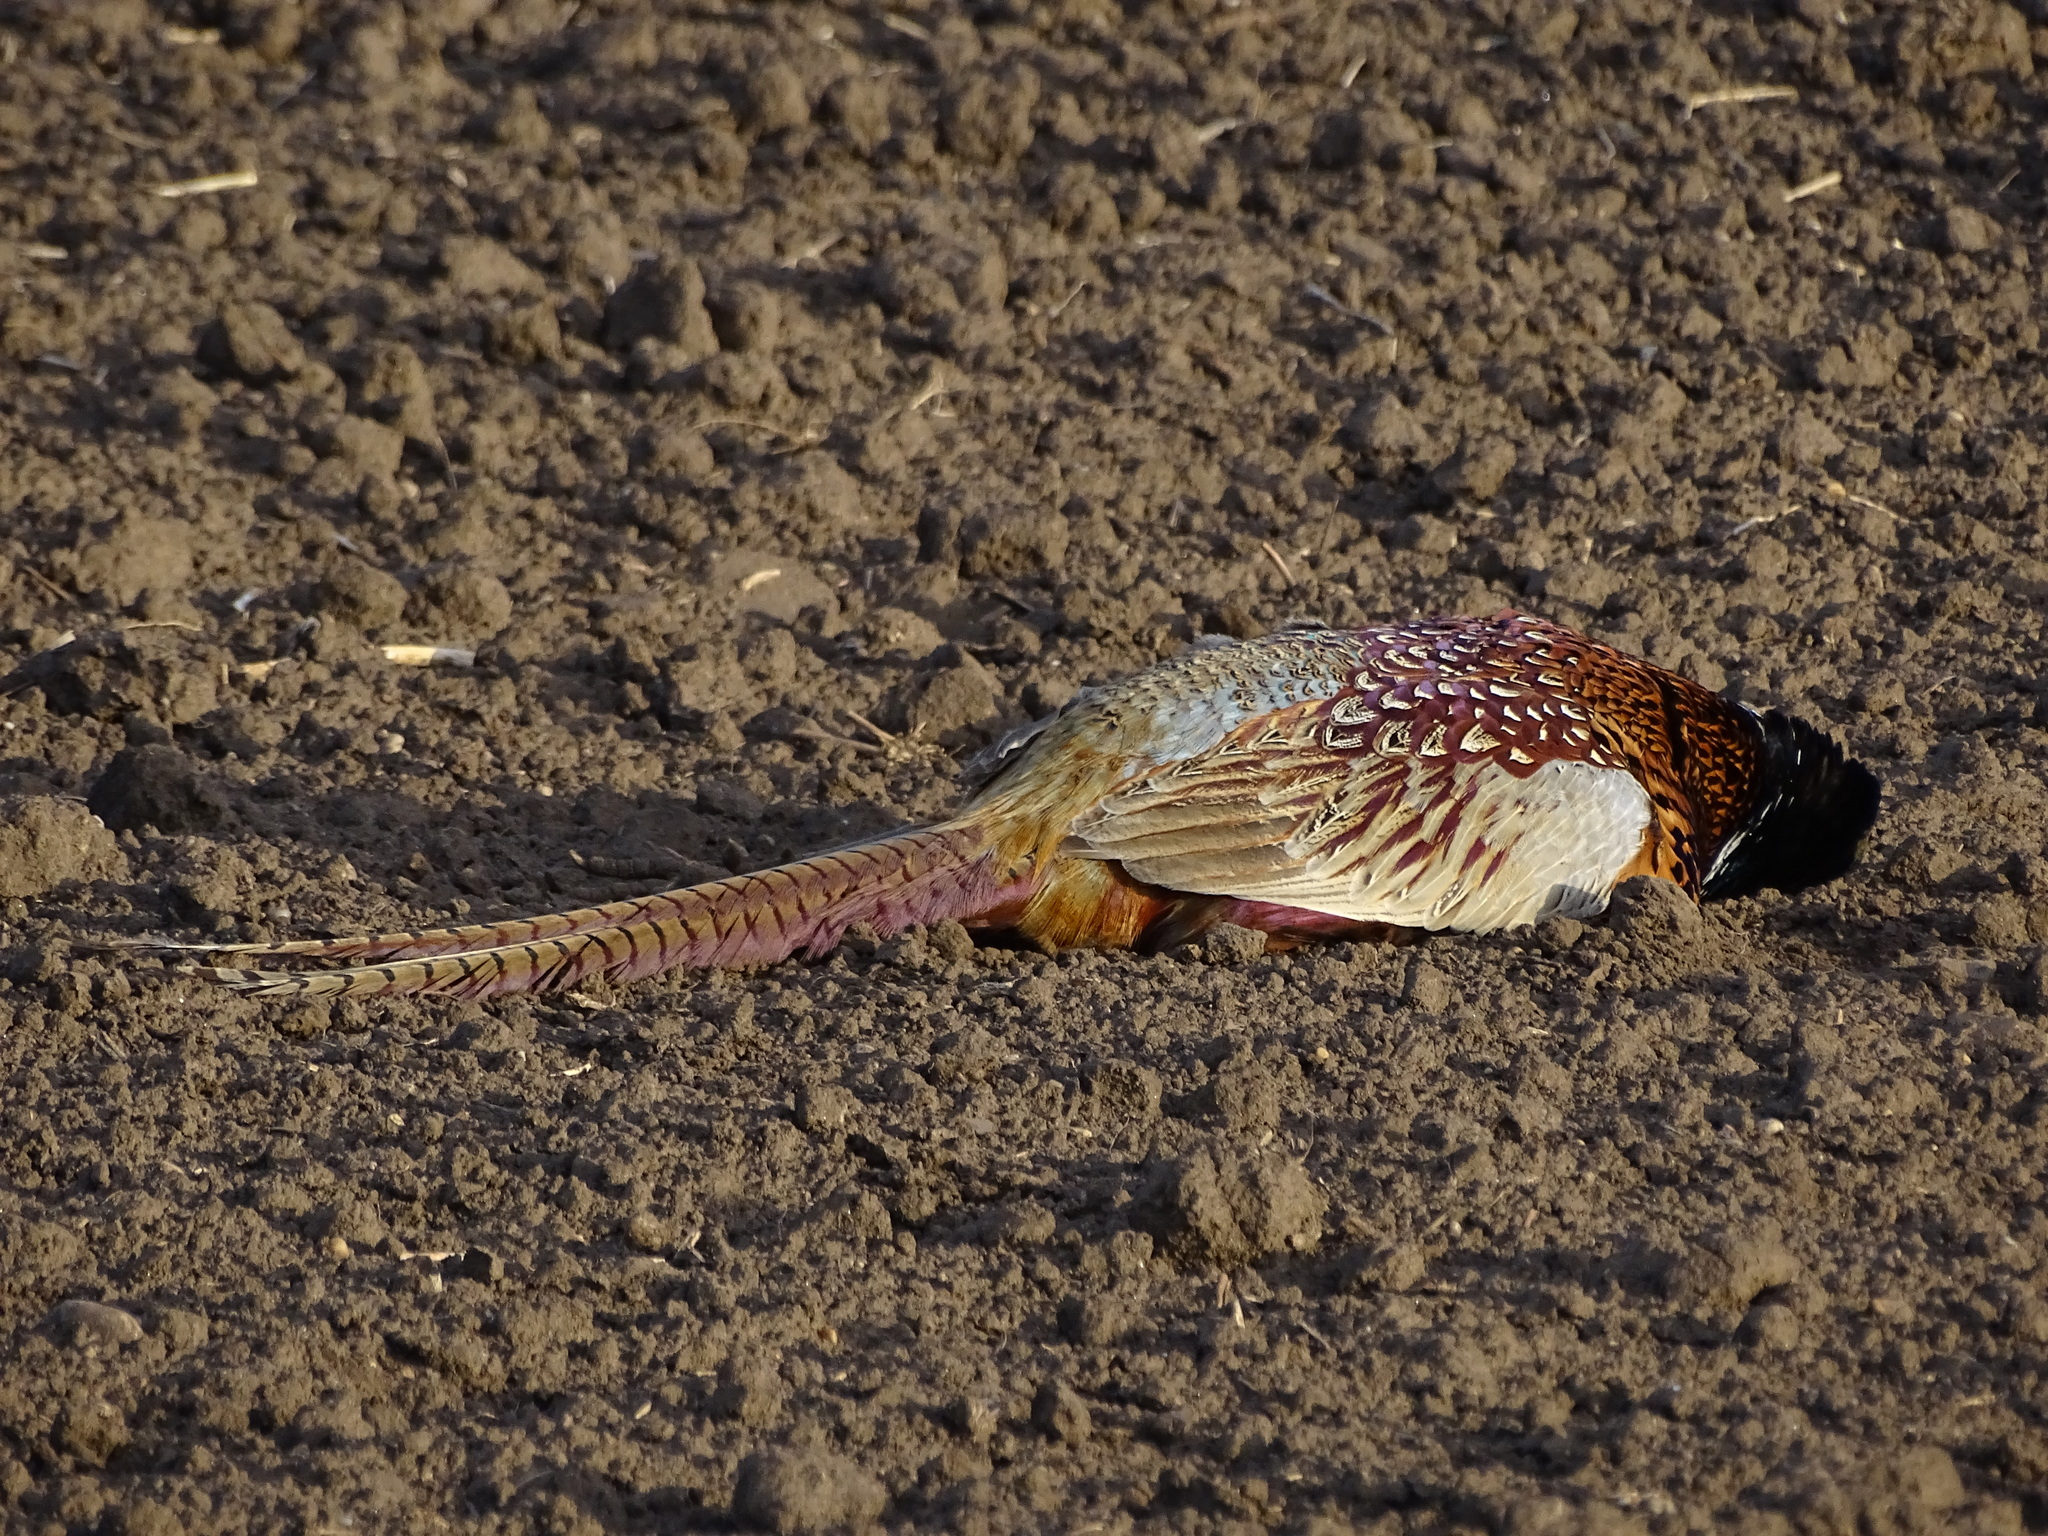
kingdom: Animalia
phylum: Chordata
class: Aves
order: Galliformes
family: Phasianidae
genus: Phasianus
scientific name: Phasianus colchicus
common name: Common pheasant
